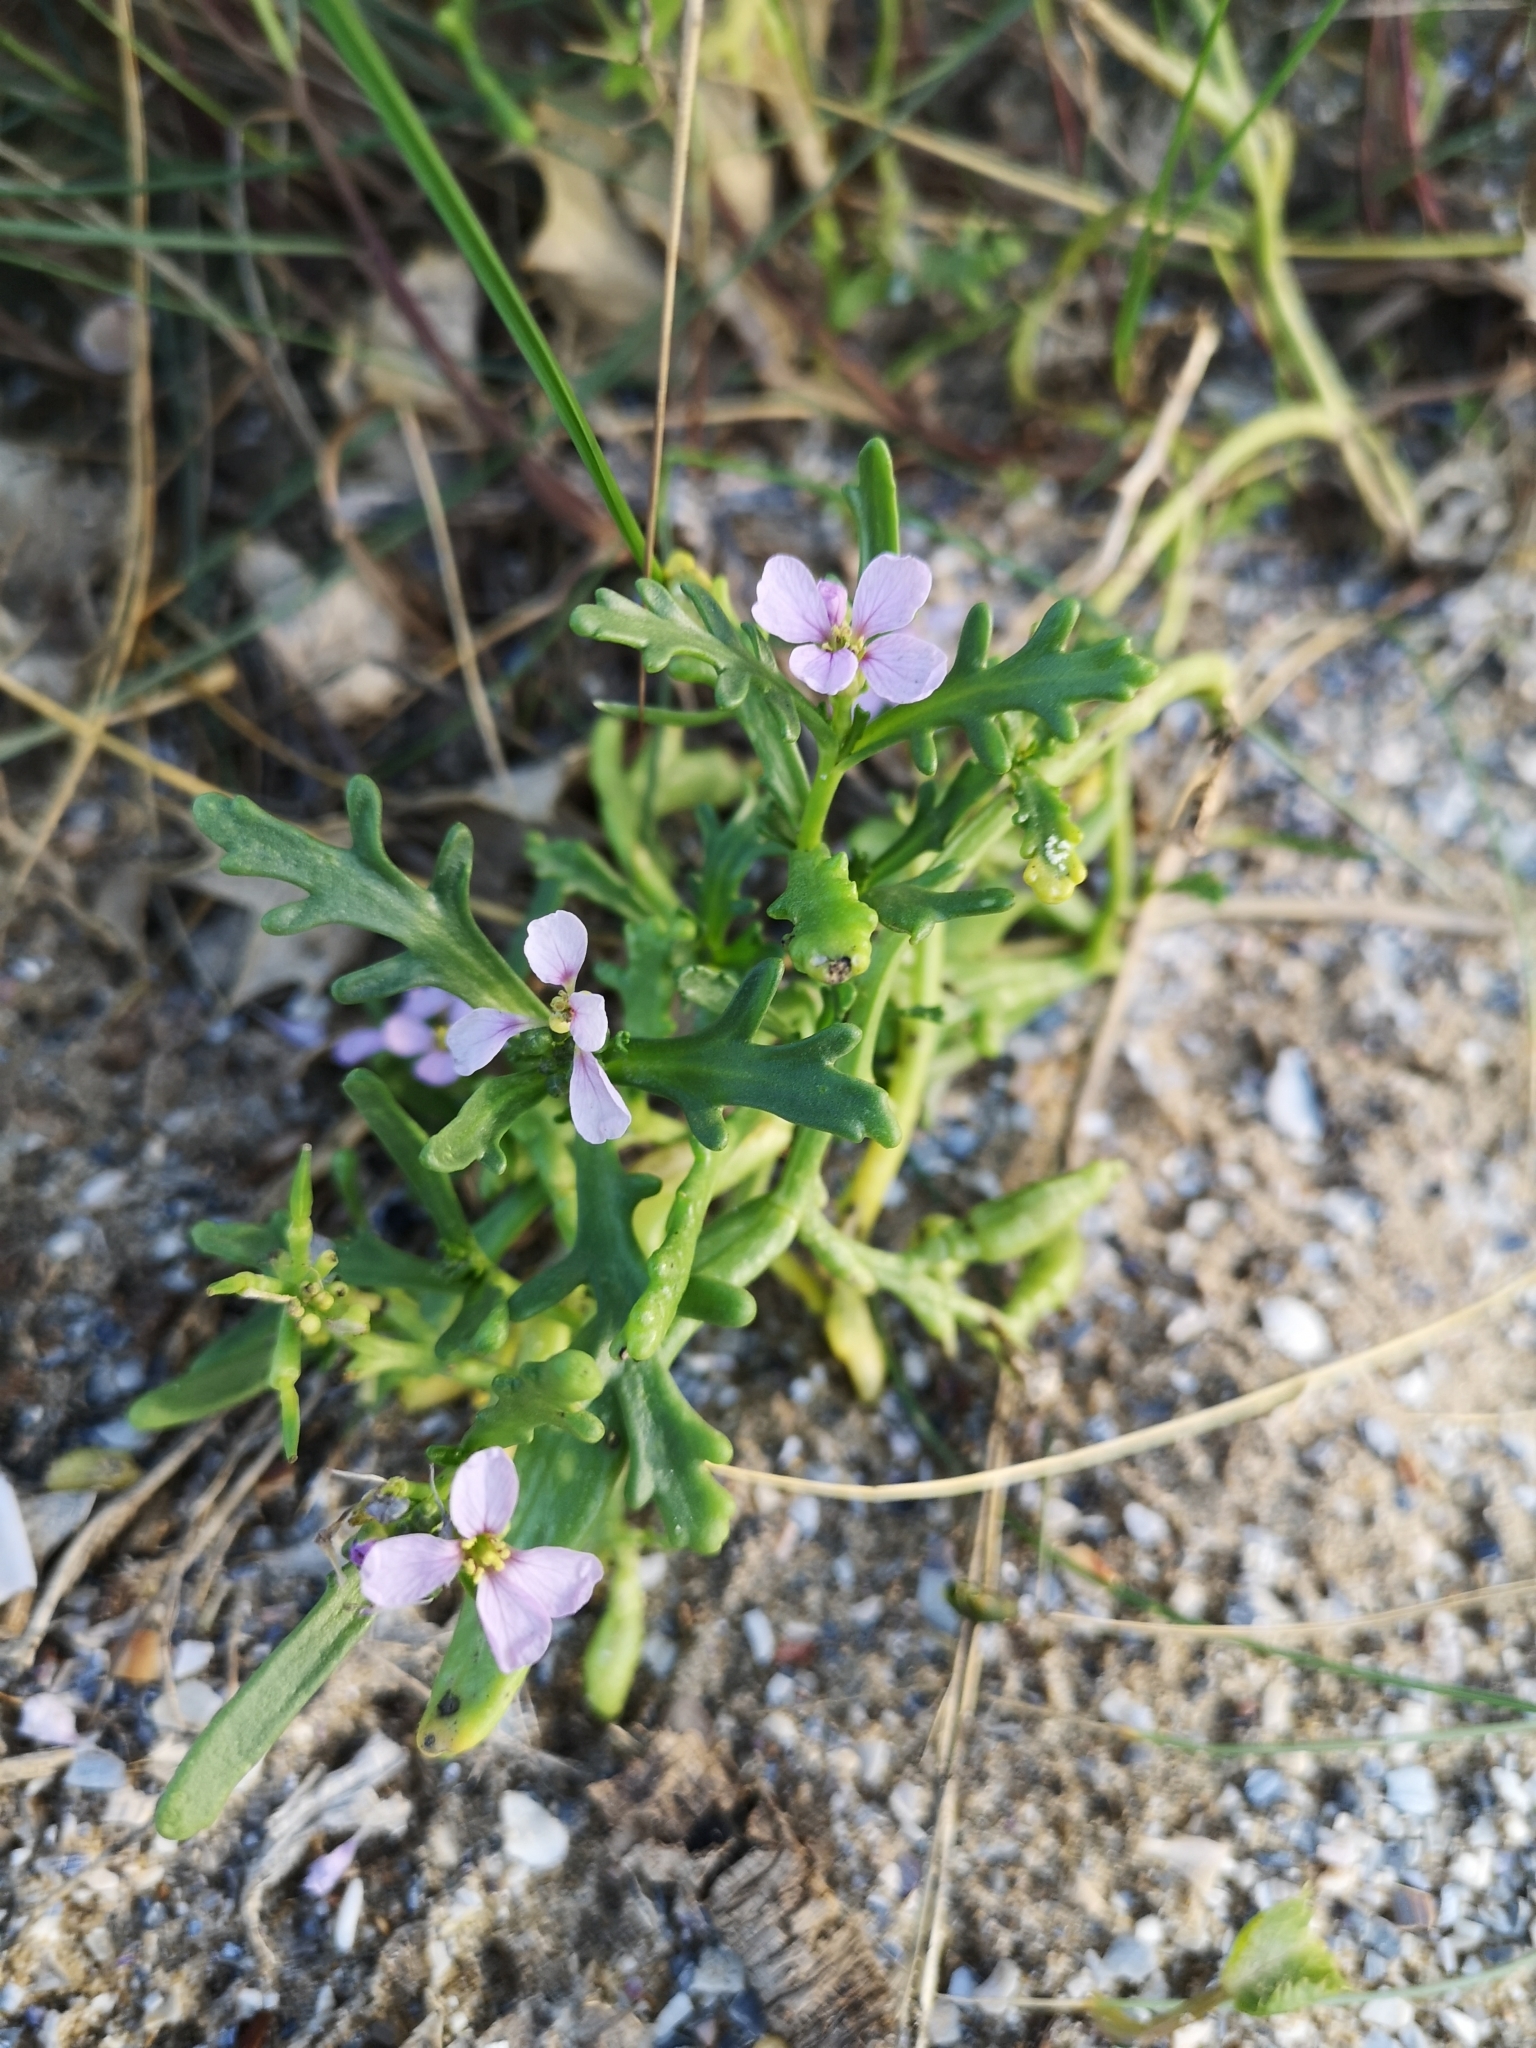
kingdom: Plantae
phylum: Tracheophyta
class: Magnoliopsida
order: Brassicales
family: Brassicaceae
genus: Cakile
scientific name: Cakile maritima
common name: Sea rocket
